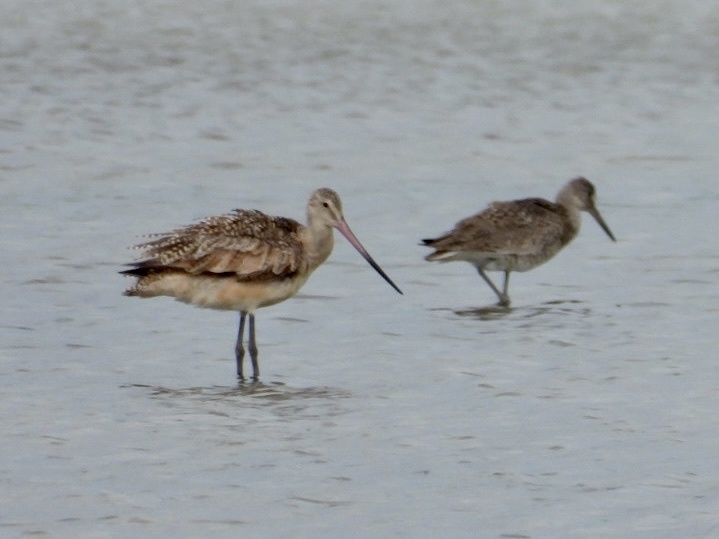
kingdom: Animalia
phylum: Chordata
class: Aves
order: Charadriiformes
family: Scolopacidae
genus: Limosa
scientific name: Limosa fedoa
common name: Marbled godwit
